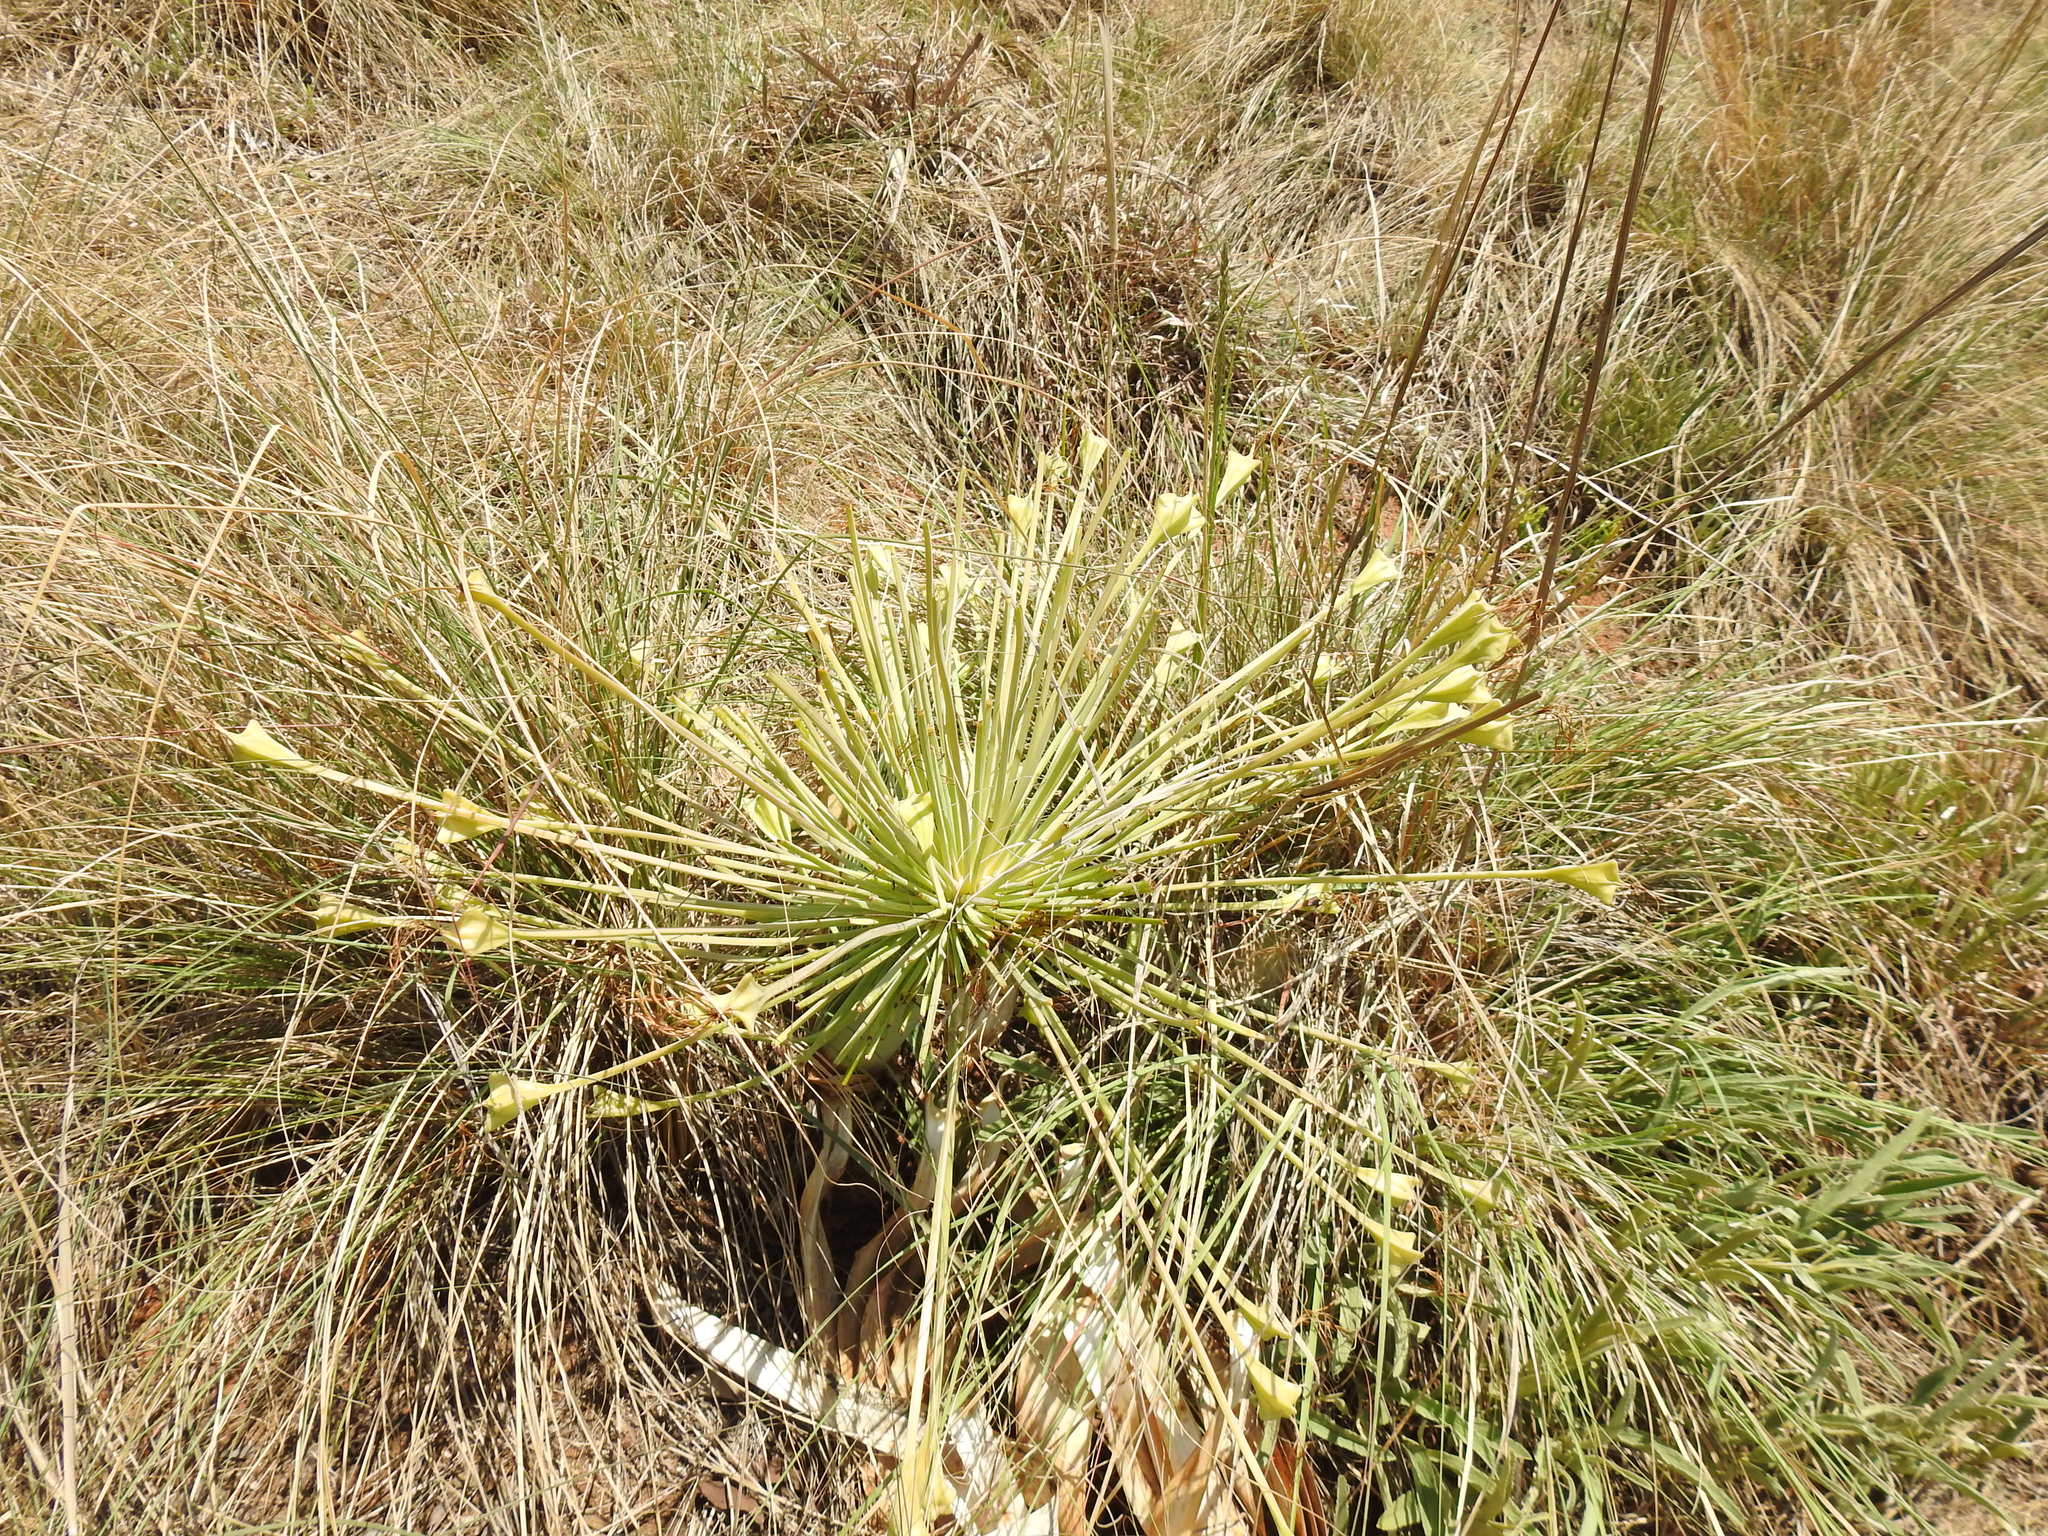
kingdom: Plantae
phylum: Tracheophyta
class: Liliopsida
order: Asparagales
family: Amaryllidaceae
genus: Boophone
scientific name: Boophone disticha
